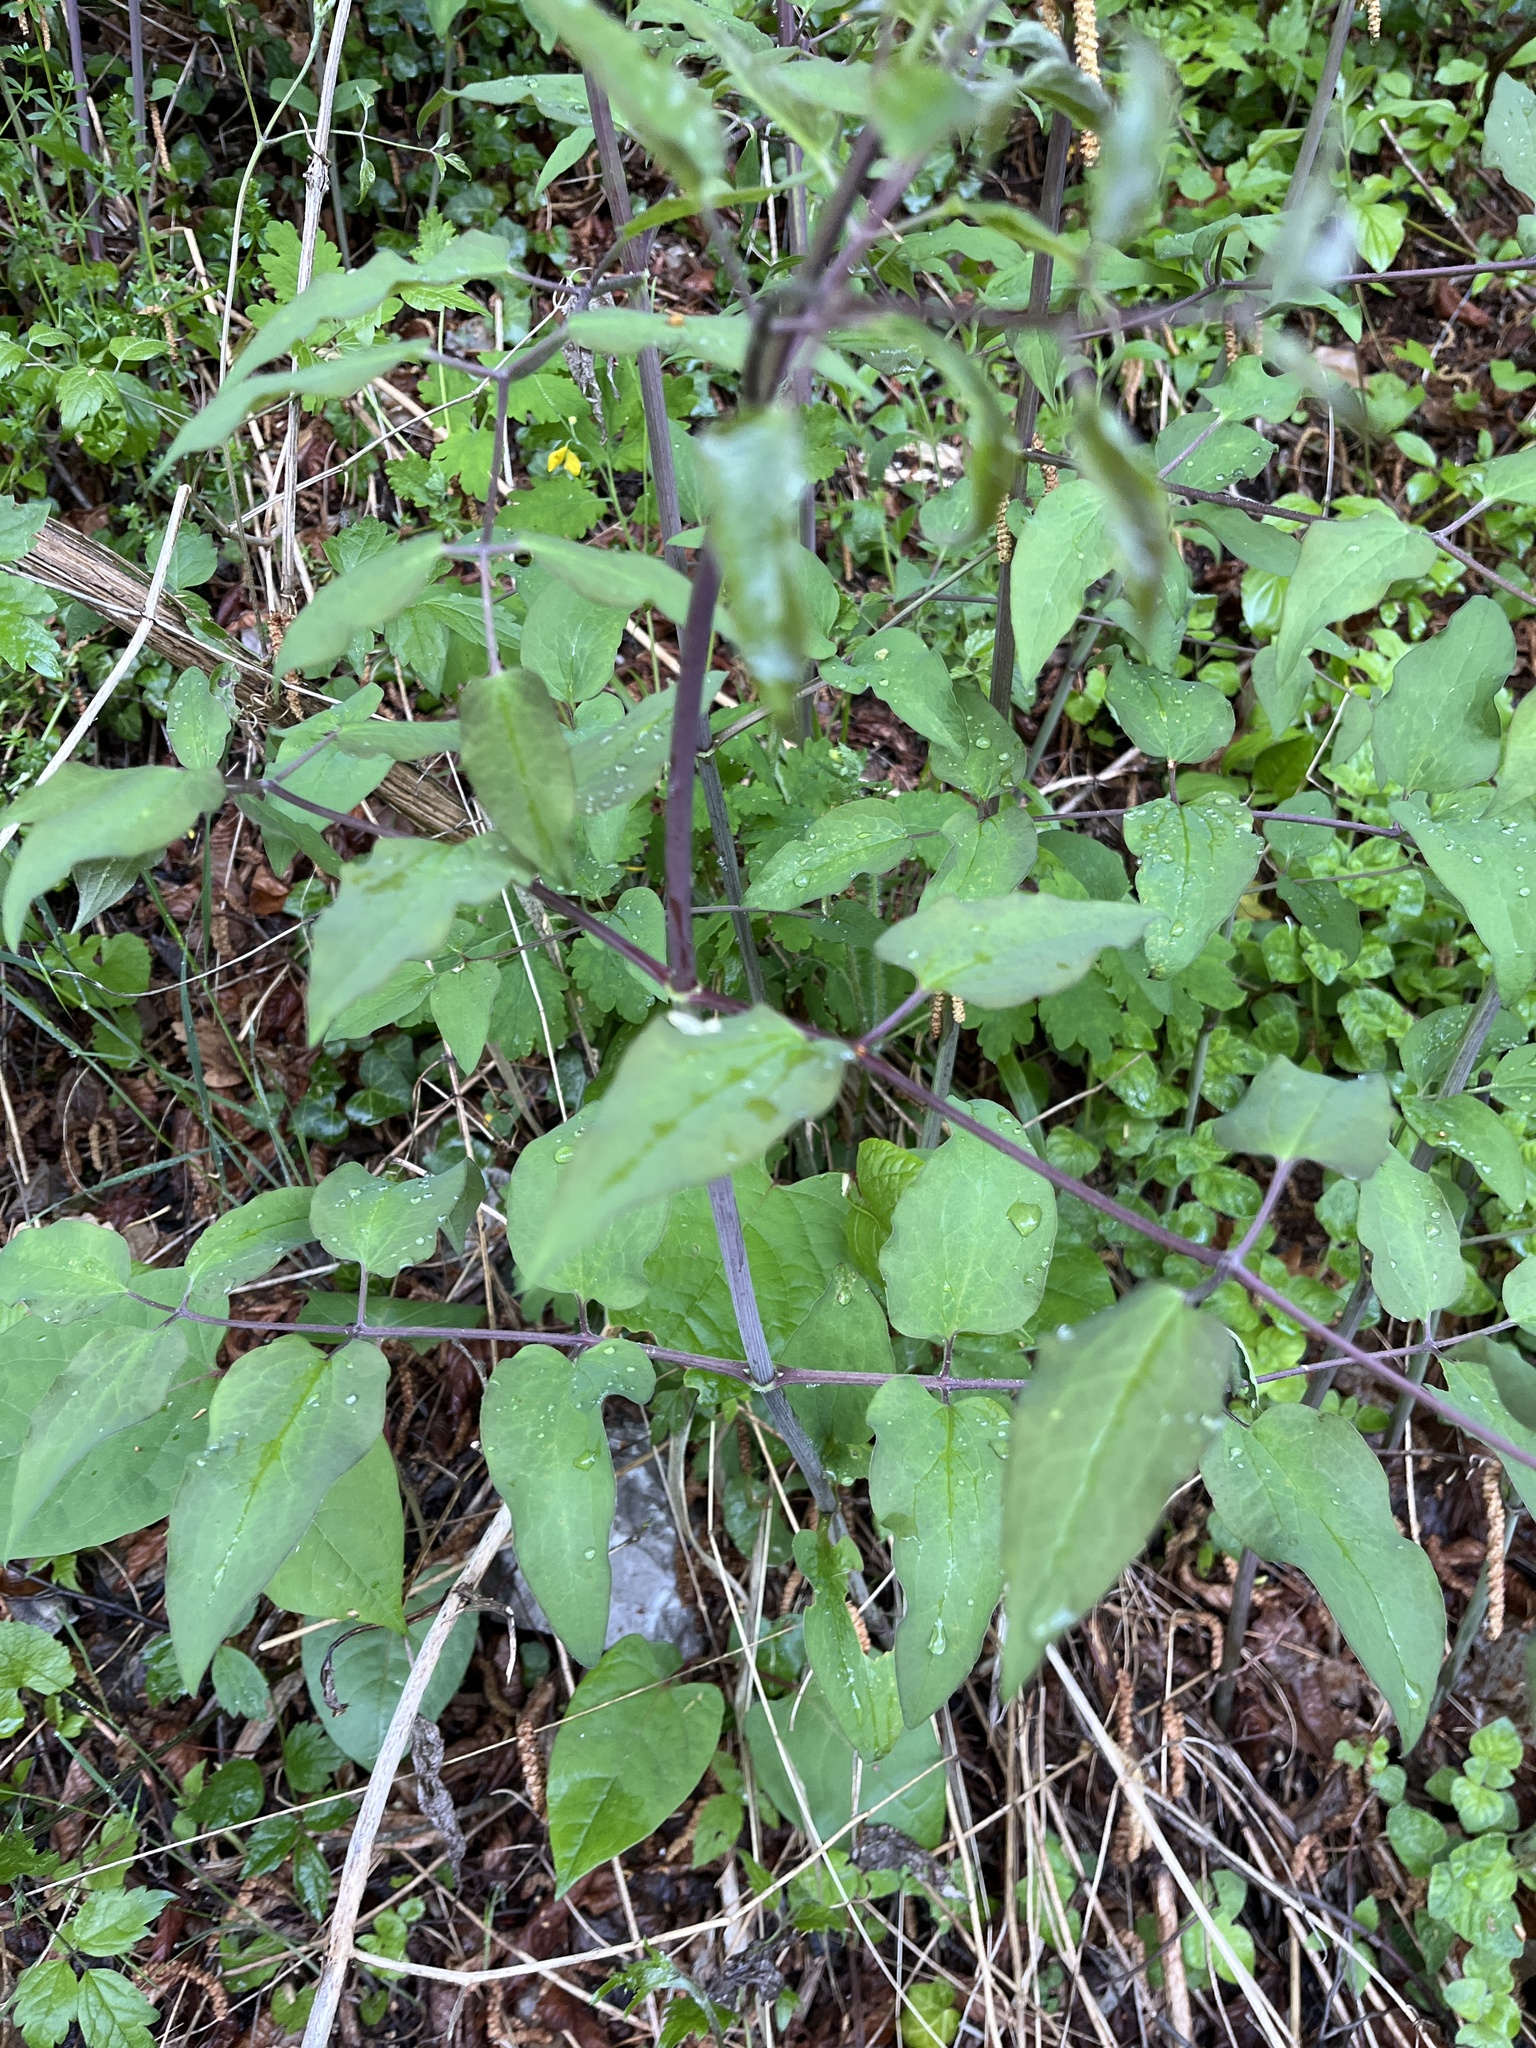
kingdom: Plantae
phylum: Tracheophyta
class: Magnoliopsida
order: Ranunculales
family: Ranunculaceae
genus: Clematis
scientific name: Clematis recta
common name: Ground clematis
